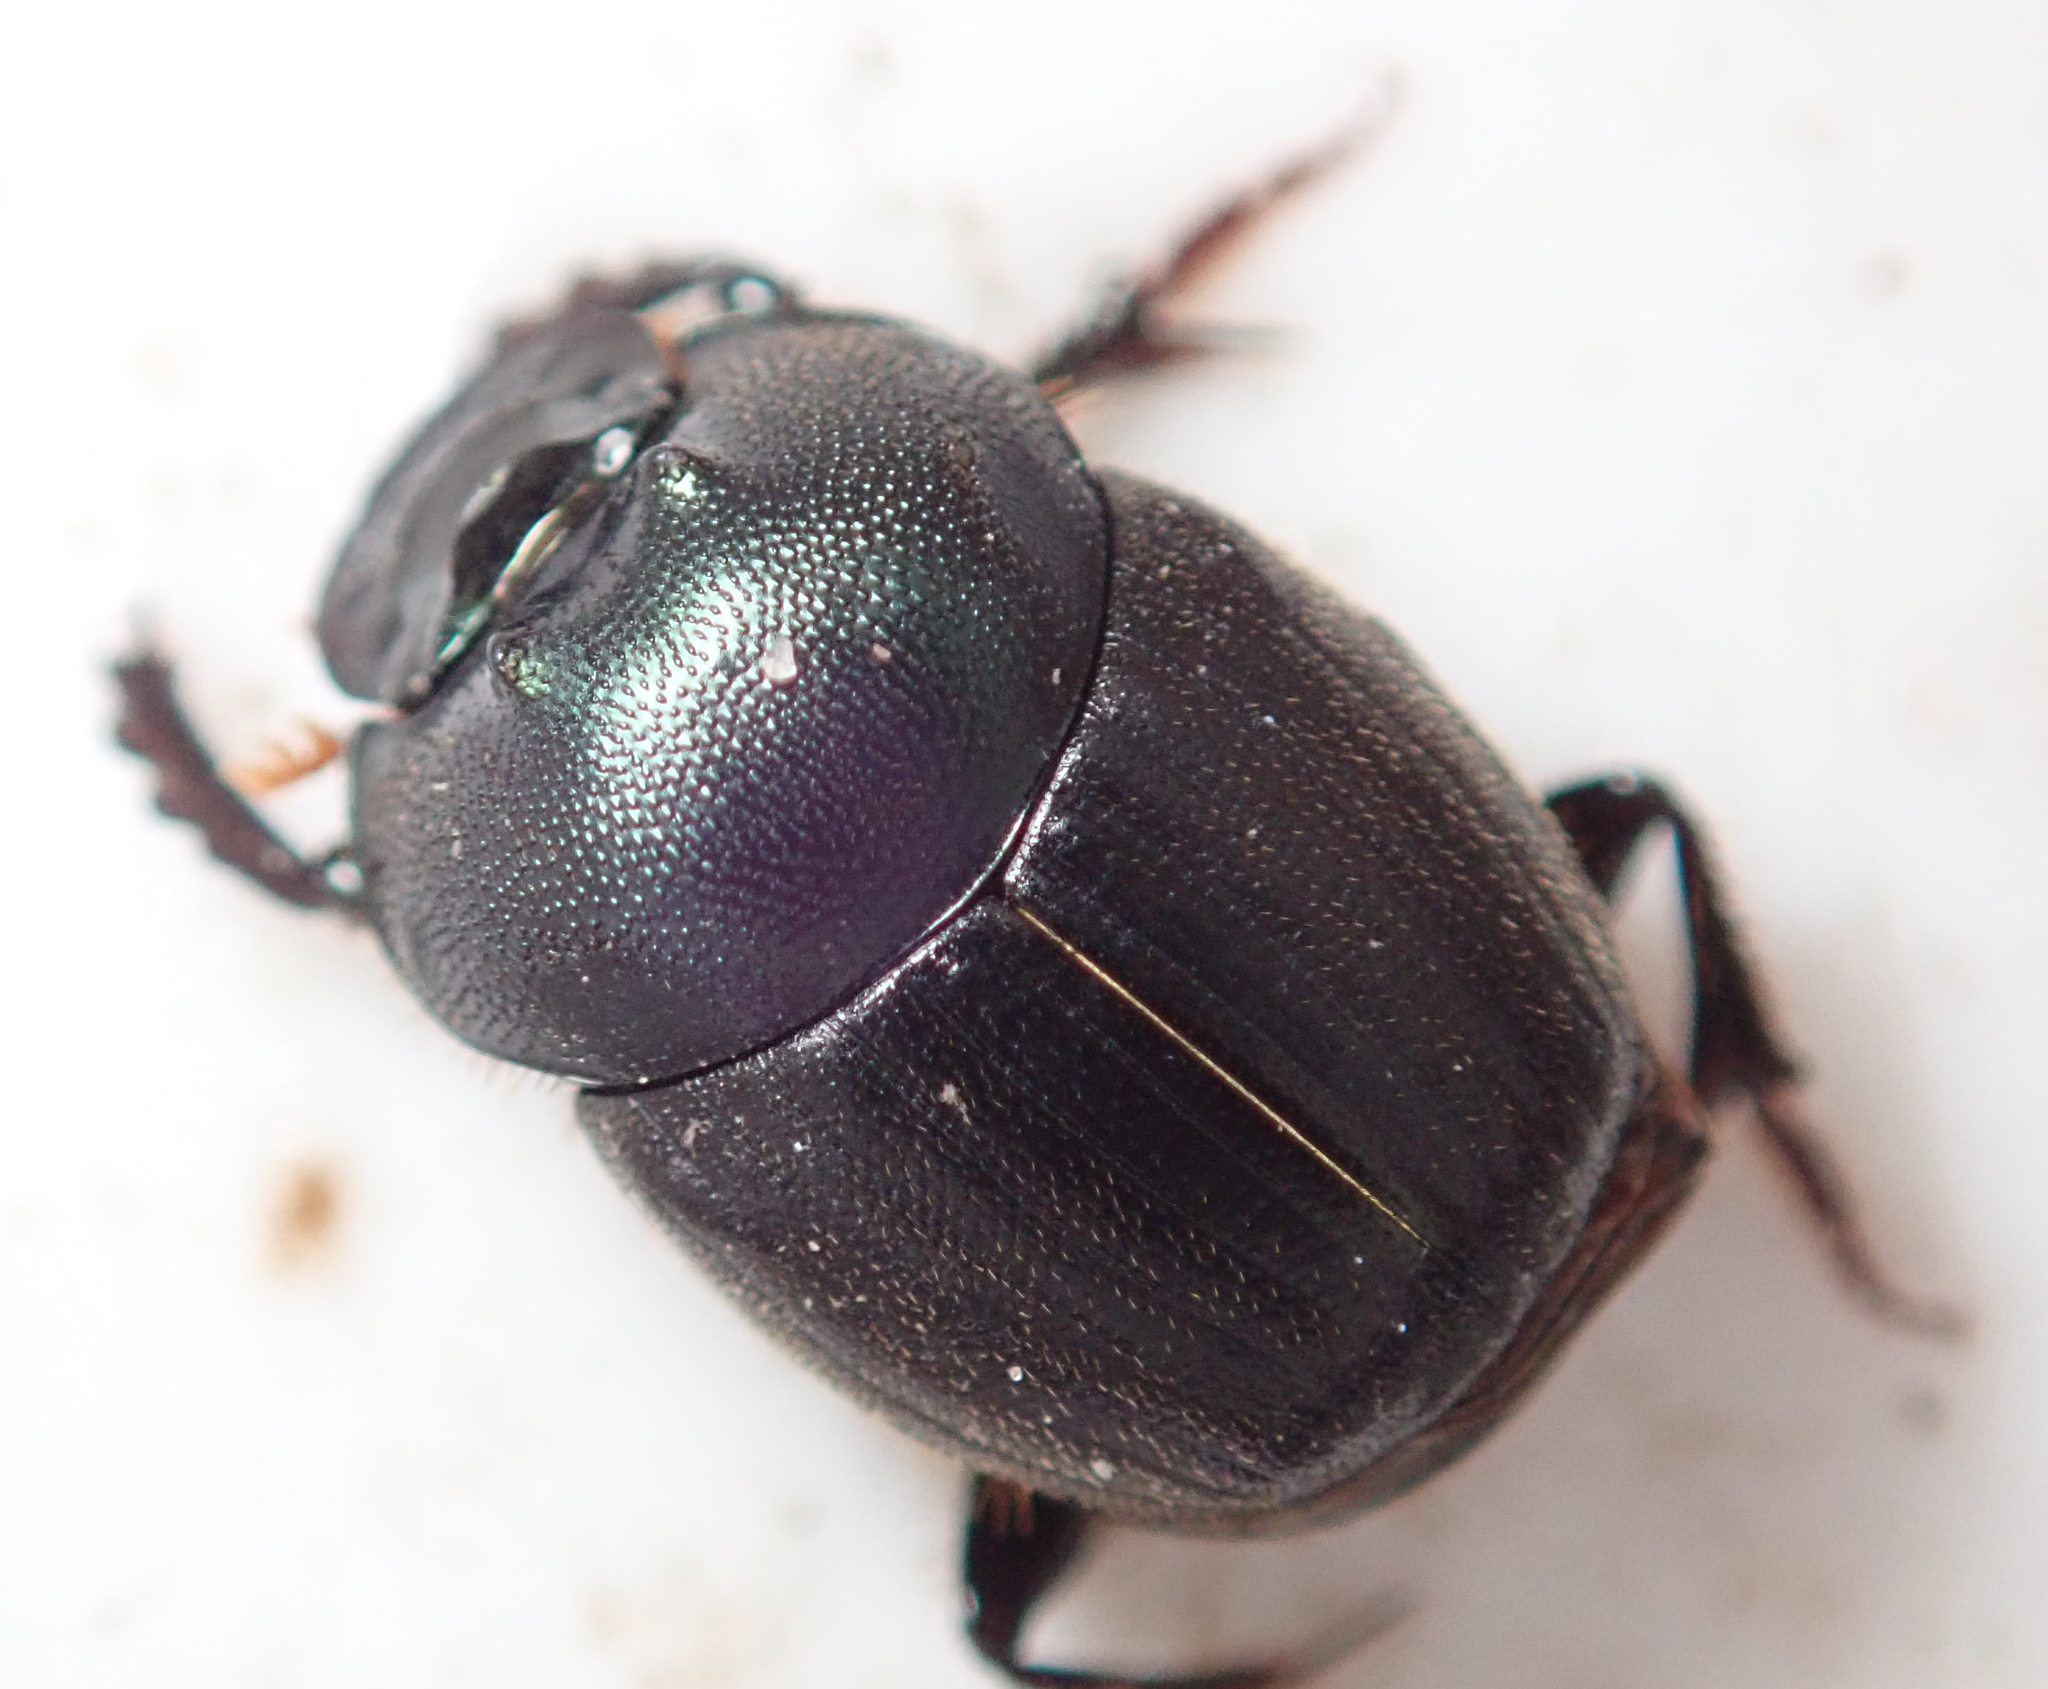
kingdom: Animalia
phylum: Arthropoda
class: Insecta
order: Coleoptera
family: Scarabaeidae
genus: Onthophagus
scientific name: Onthophagus deterrens
